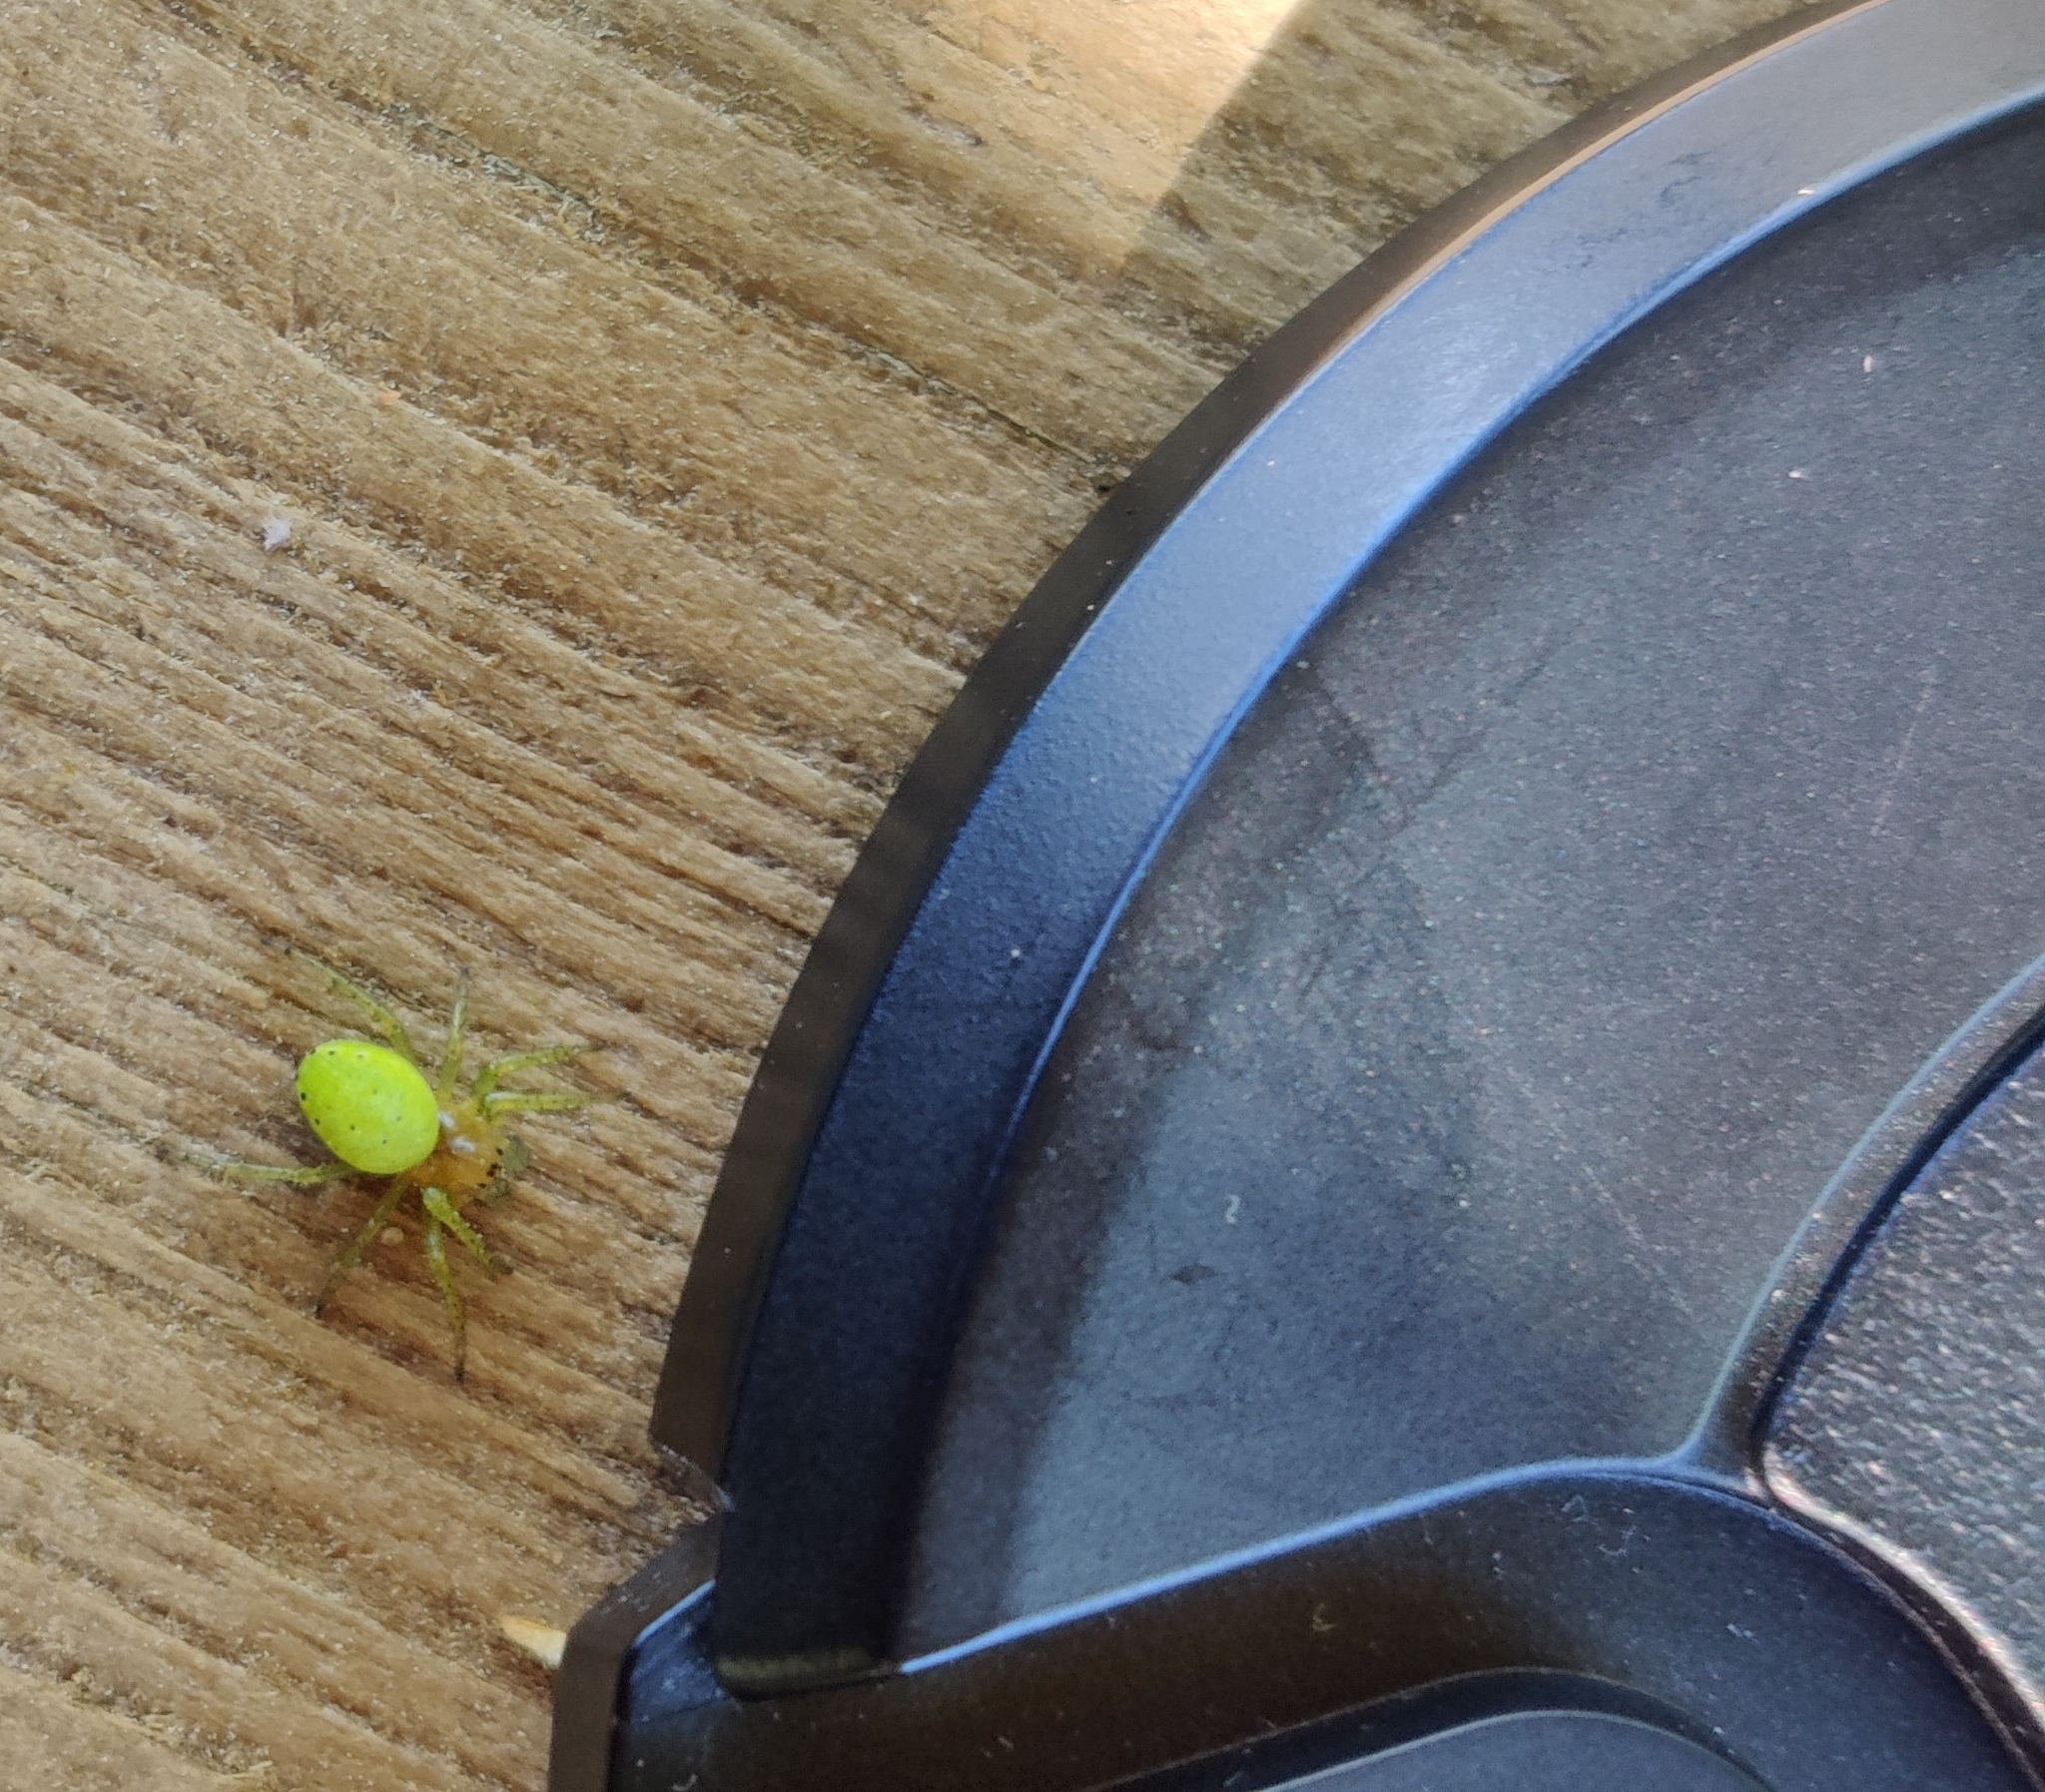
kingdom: Animalia
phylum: Arthropoda
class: Arachnida
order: Araneae
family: Araneidae
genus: Araniella
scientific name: Araniella
